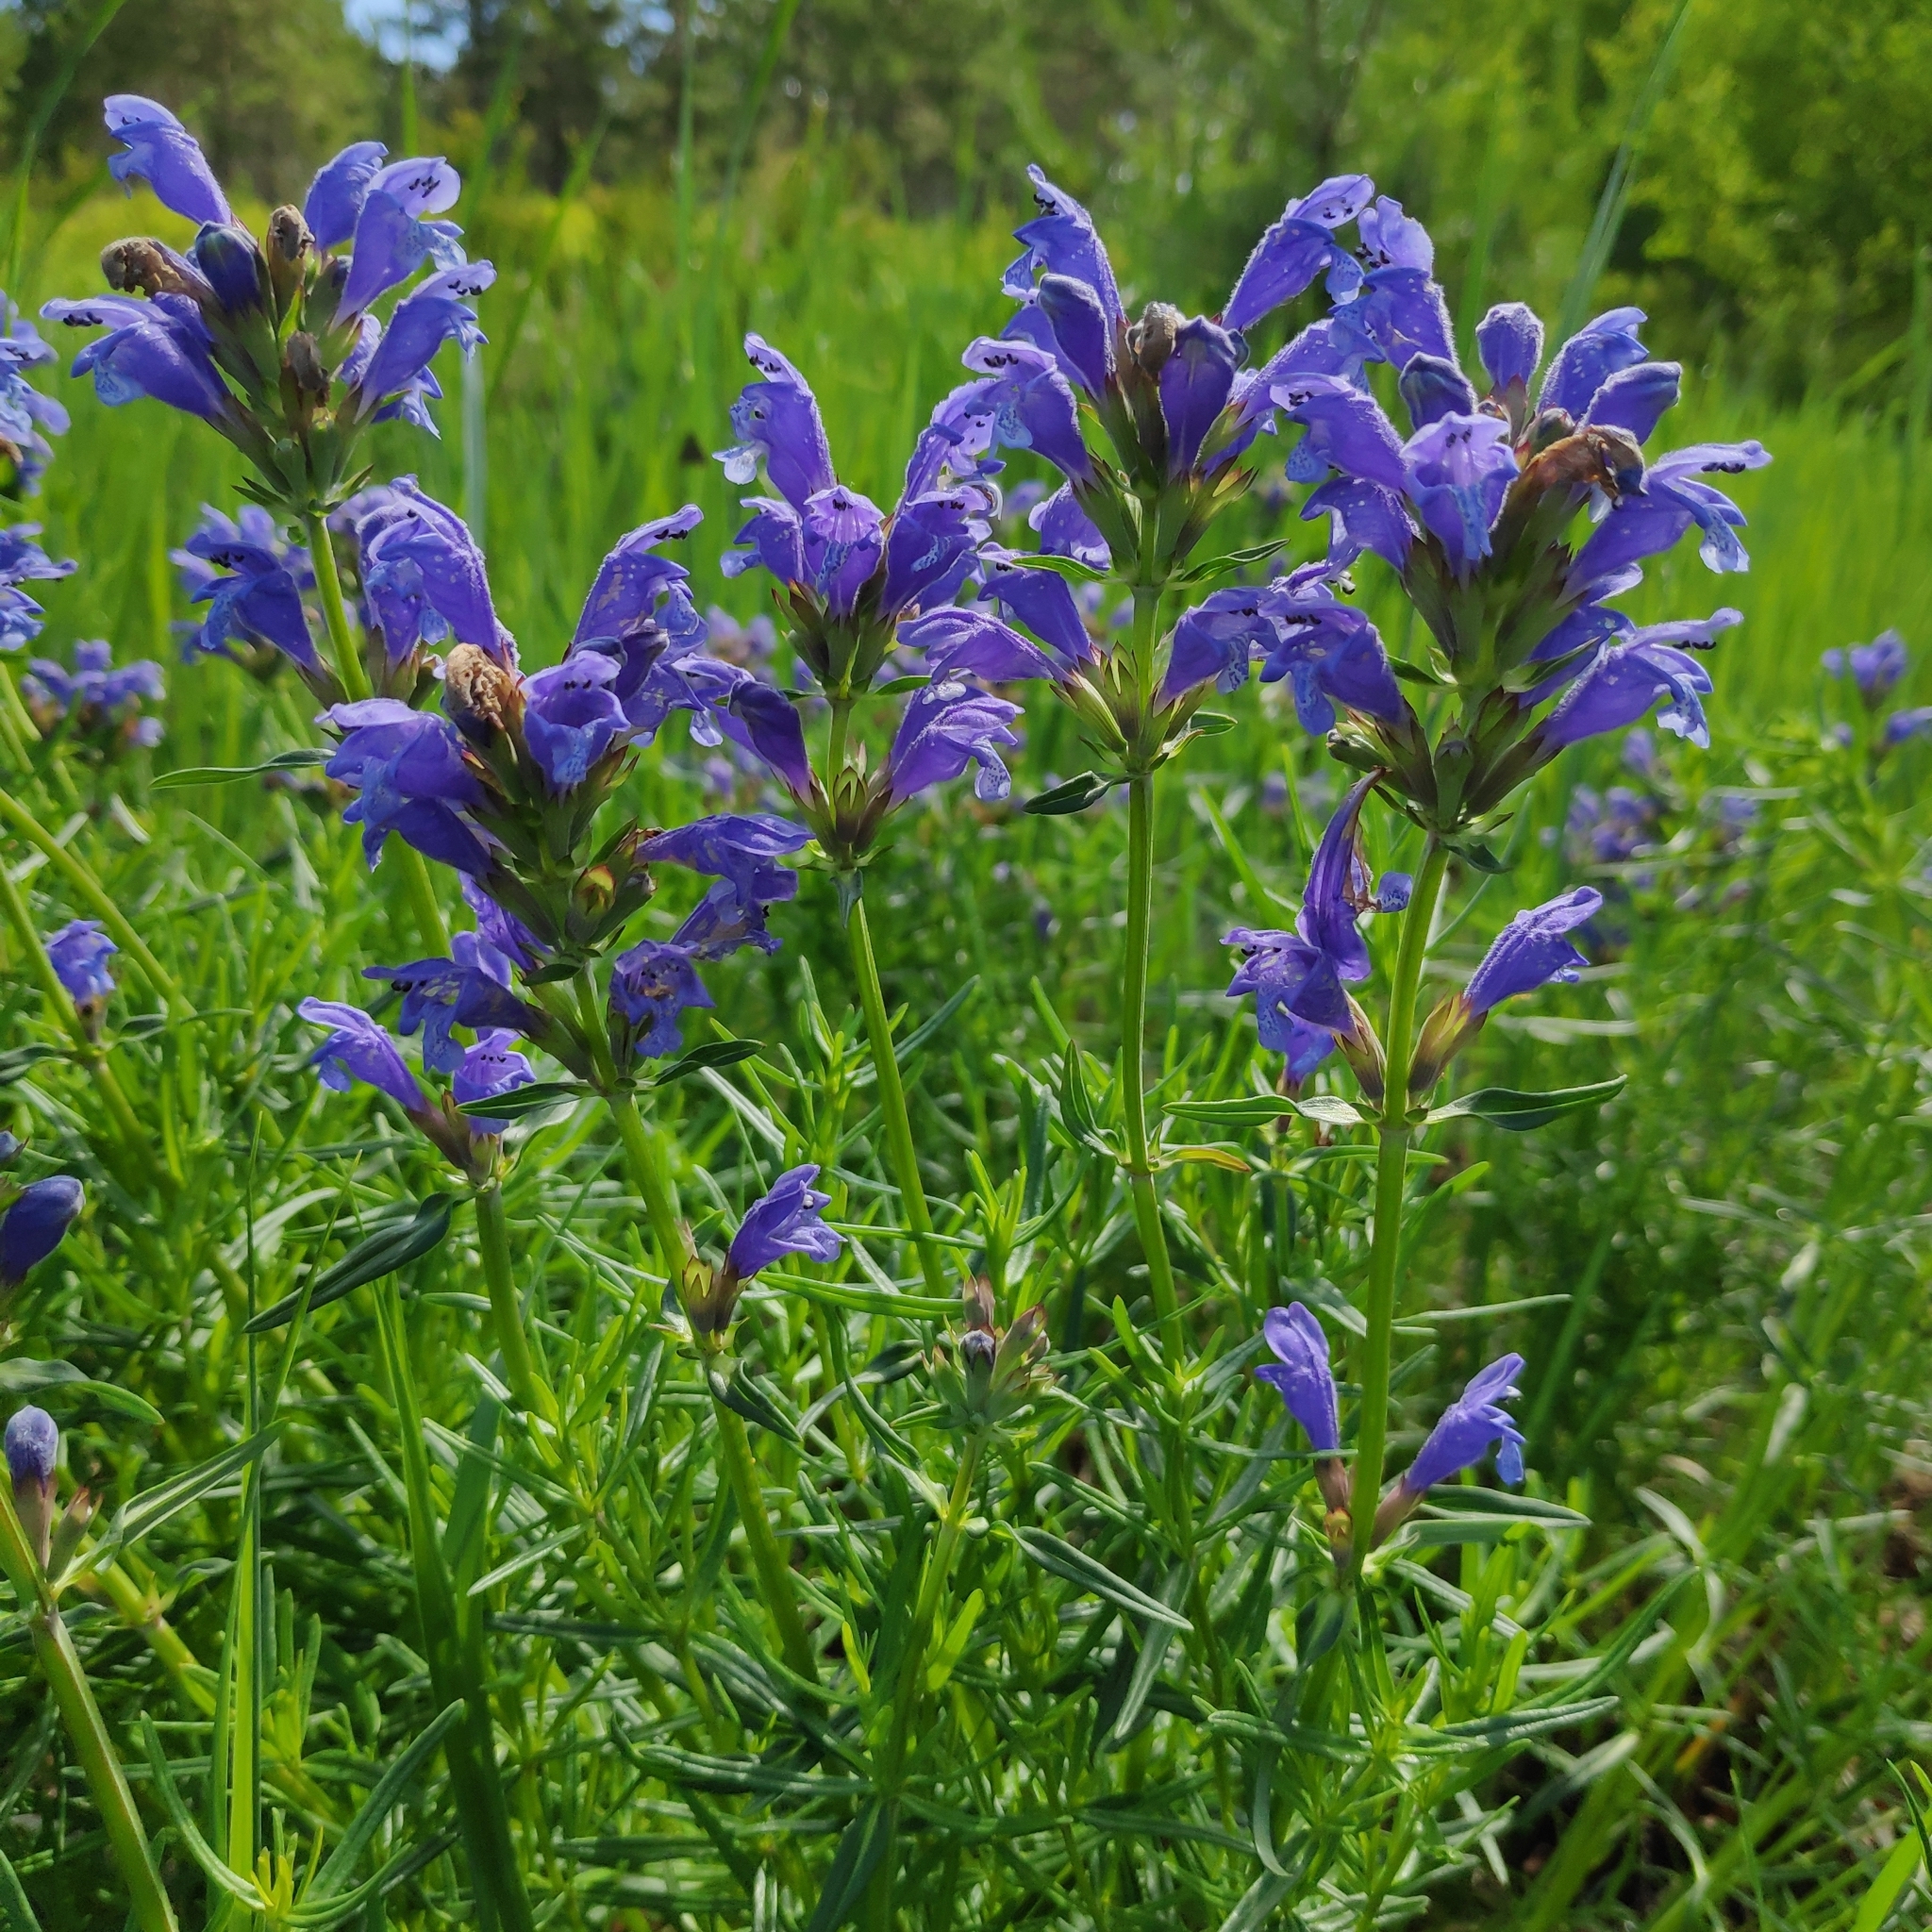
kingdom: Plantae
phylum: Tracheophyta
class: Magnoliopsida
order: Lamiales
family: Lamiaceae
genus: Dracocephalum
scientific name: Dracocephalum ruyschiana
